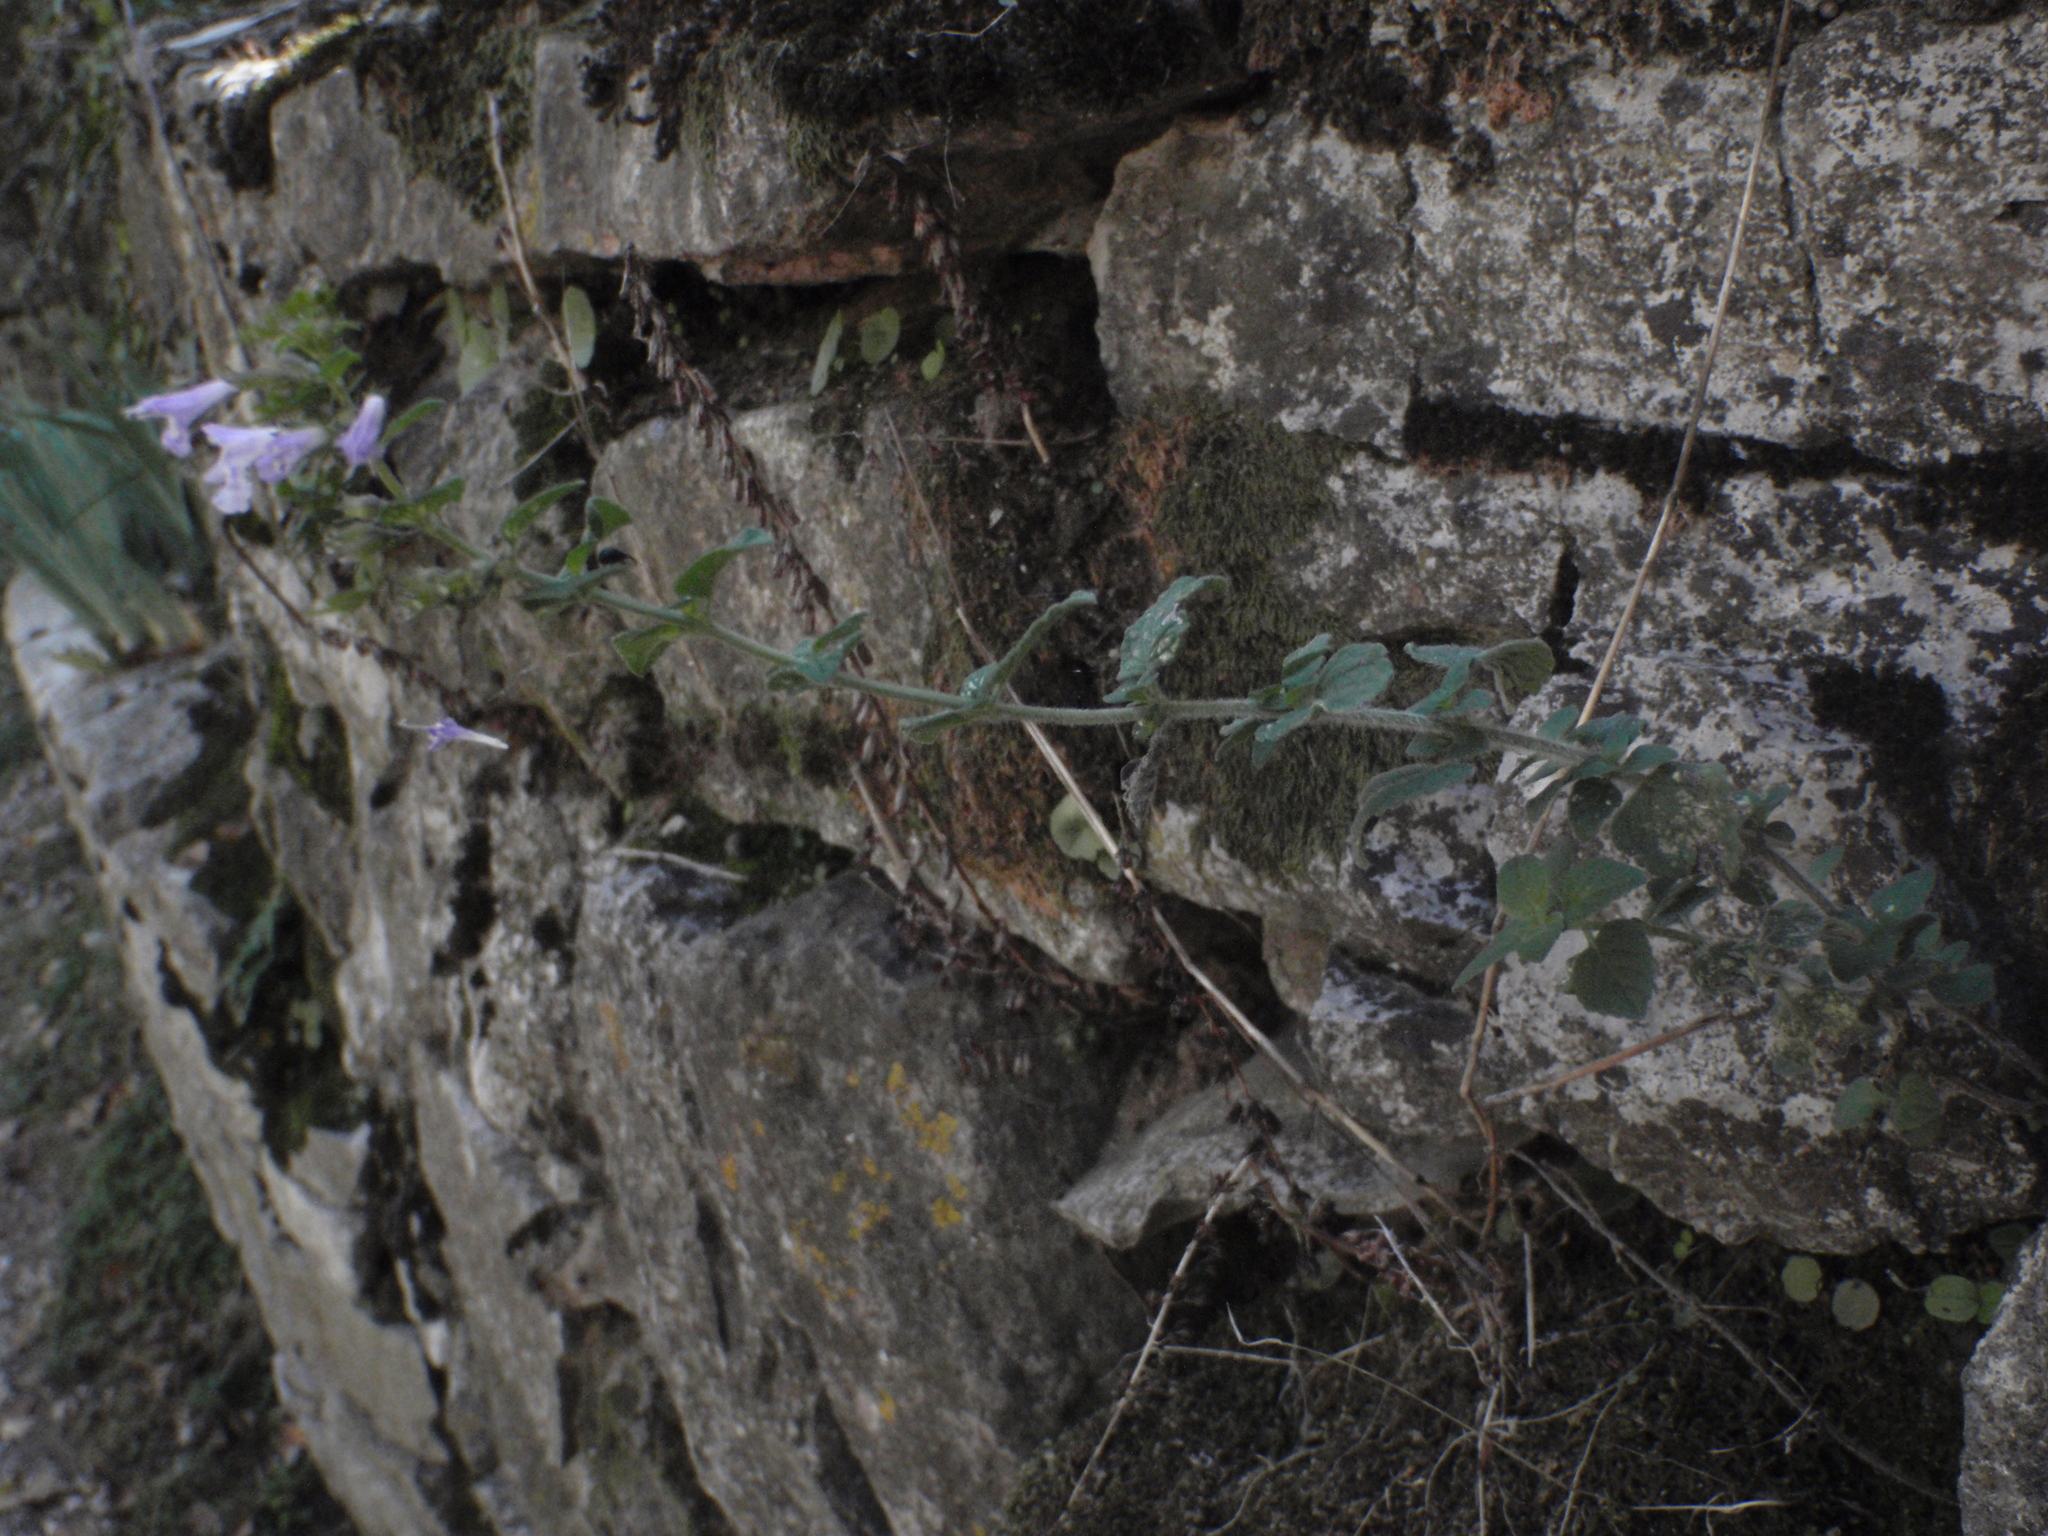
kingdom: Plantae
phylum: Tracheophyta
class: Magnoliopsida
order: Lamiales
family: Lamiaceae
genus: Clinopodium
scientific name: Clinopodium nepeta
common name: Lesser calamint
